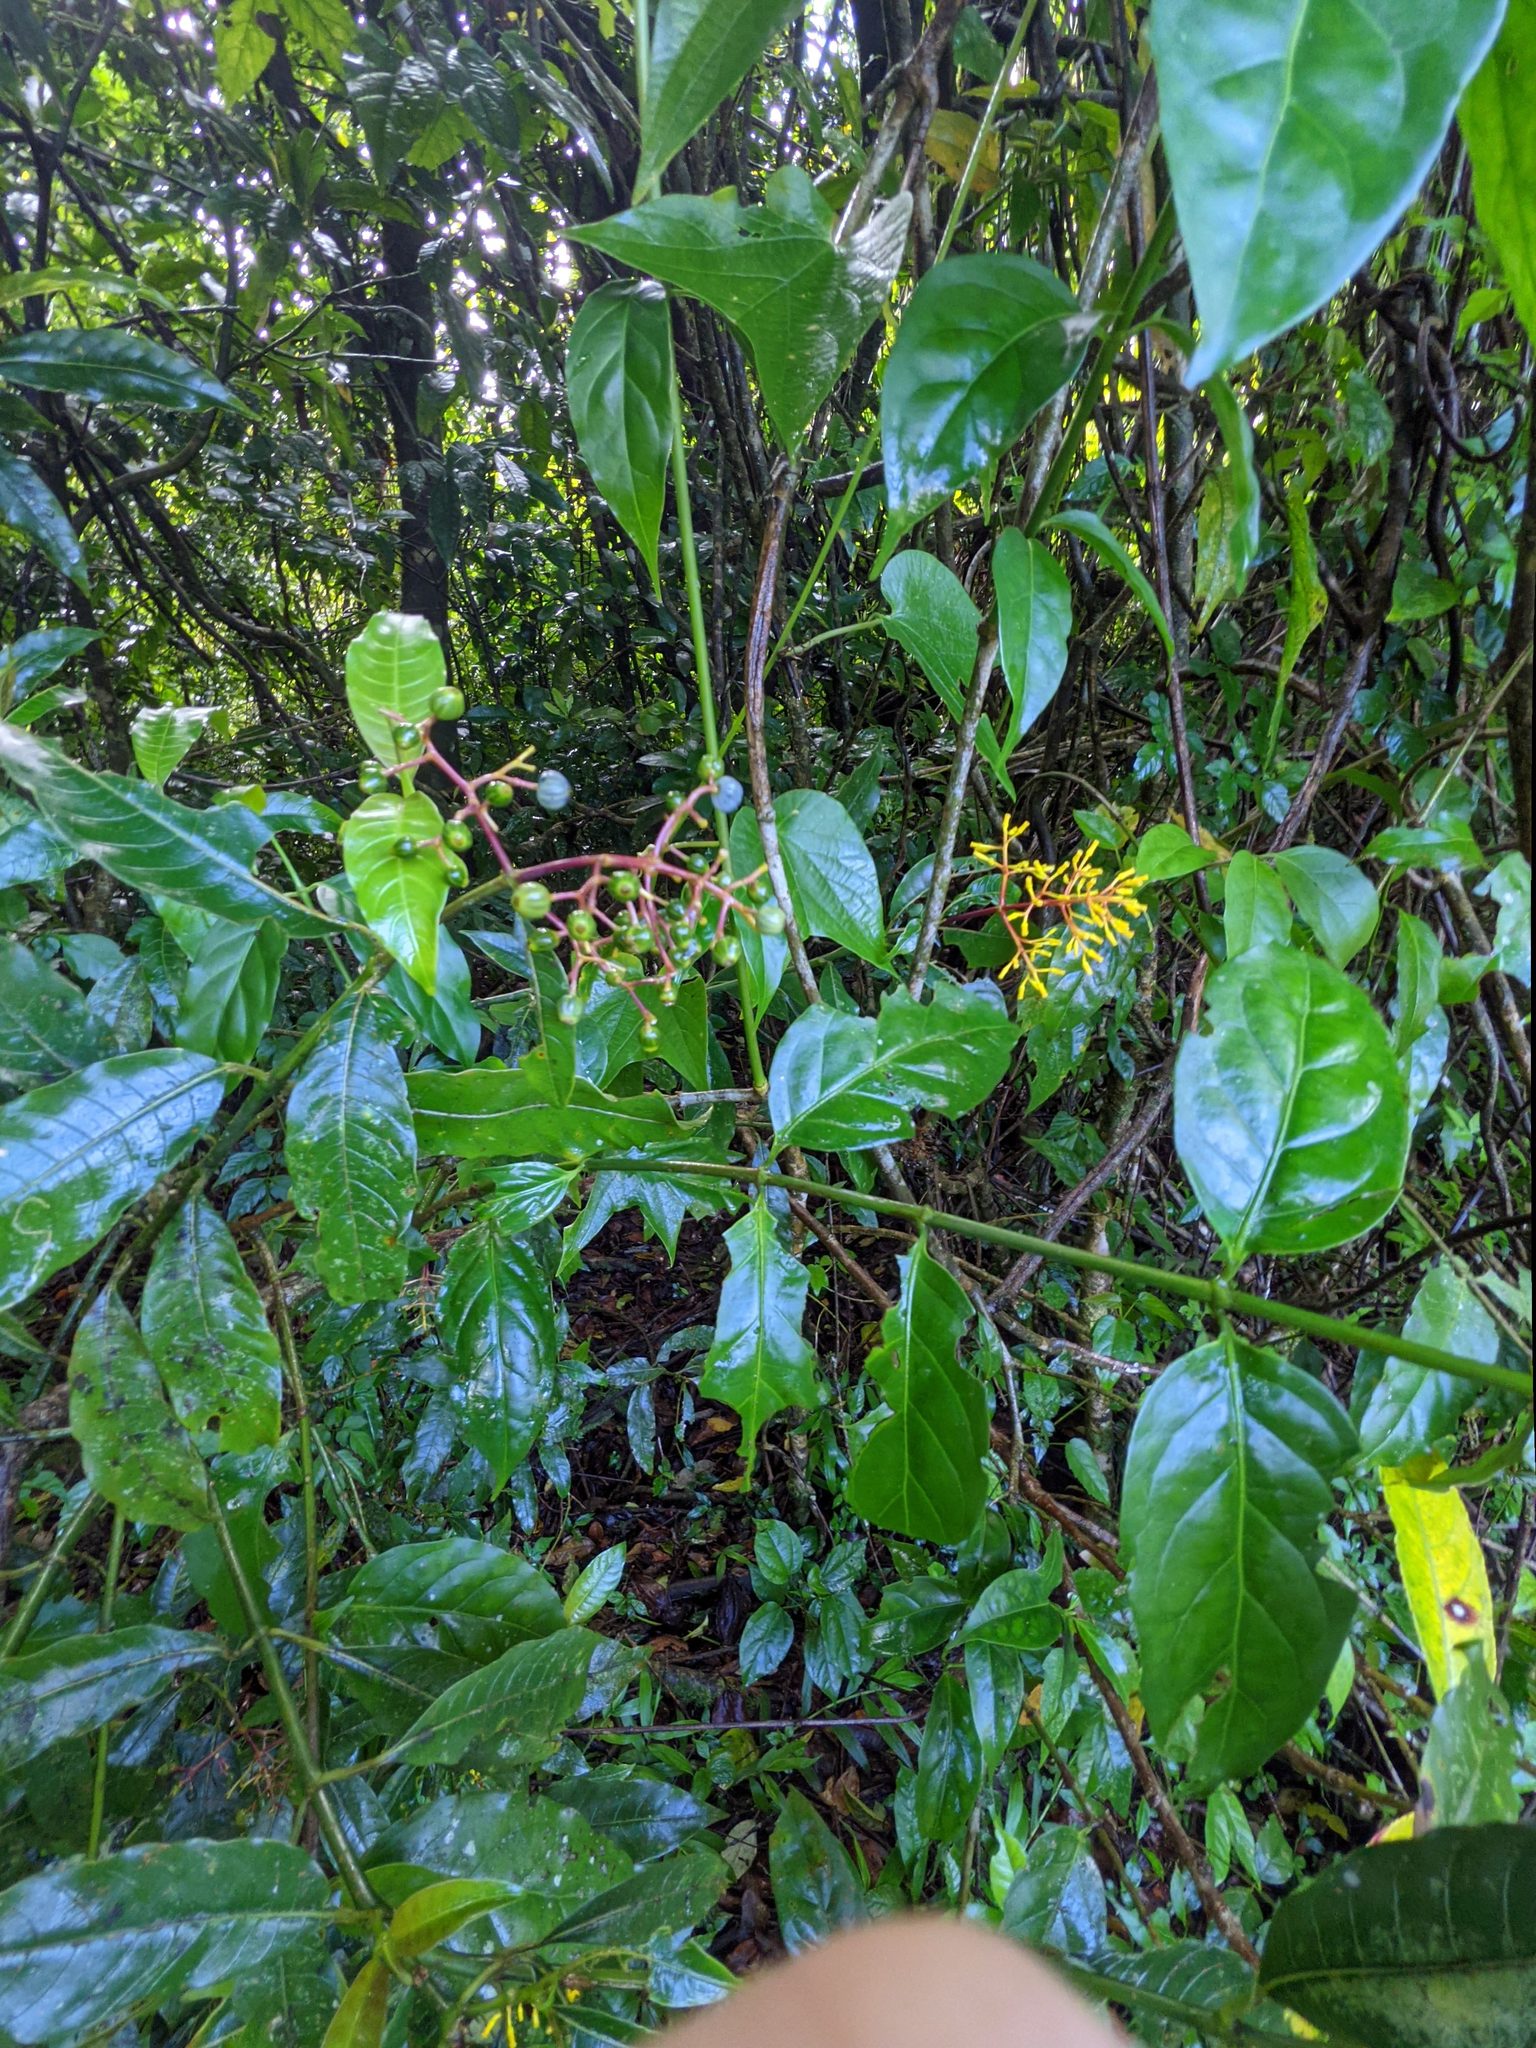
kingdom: Plantae
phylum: Tracheophyta
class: Magnoliopsida
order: Gentianales
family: Rubiaceae
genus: Palicourea
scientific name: Palicourea padifolia
